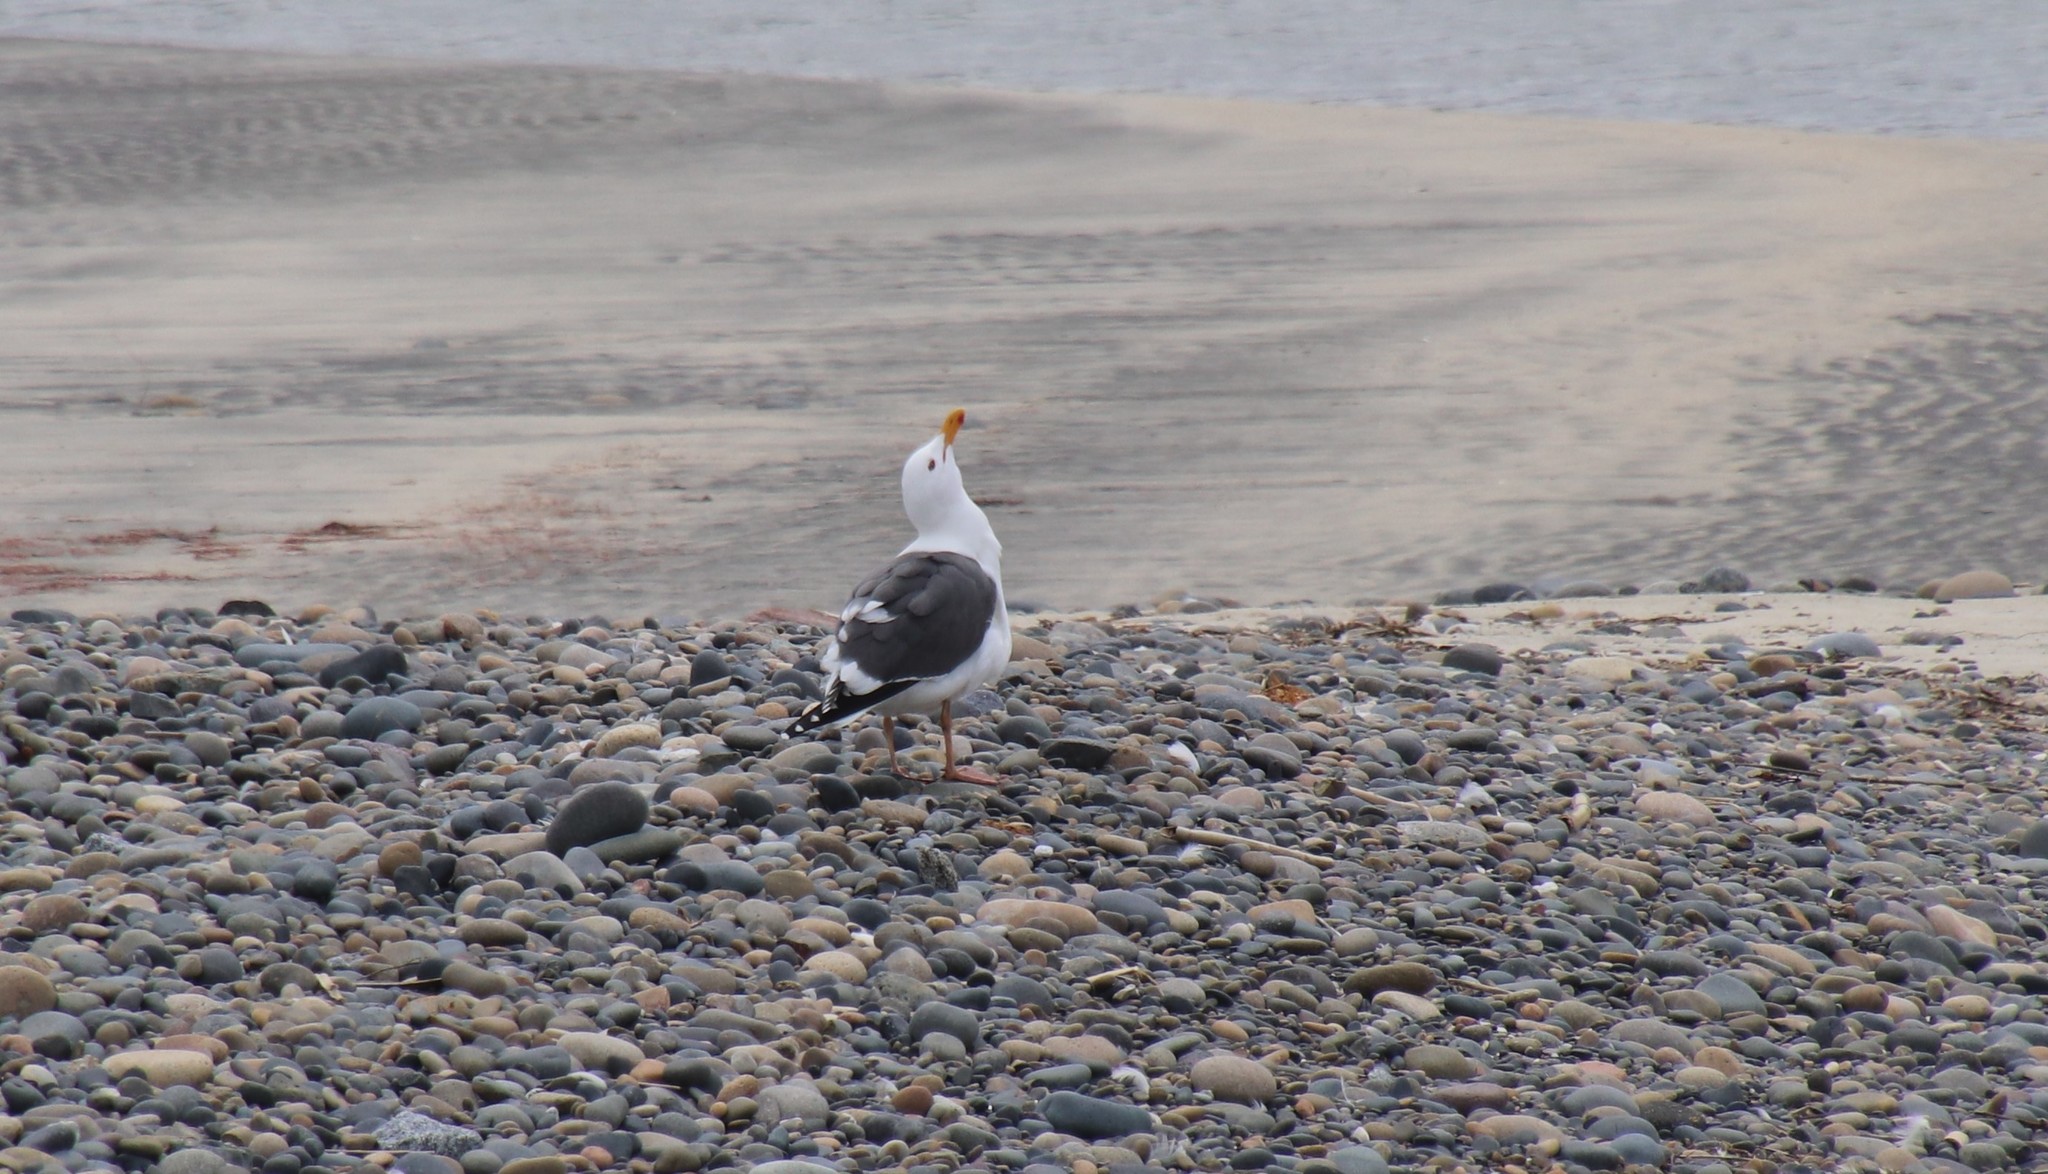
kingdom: Animalia
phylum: Chordata
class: Aves
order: Charadriiformes
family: Laridae
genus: Larus
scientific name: Larus occidentalis
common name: Western gull
